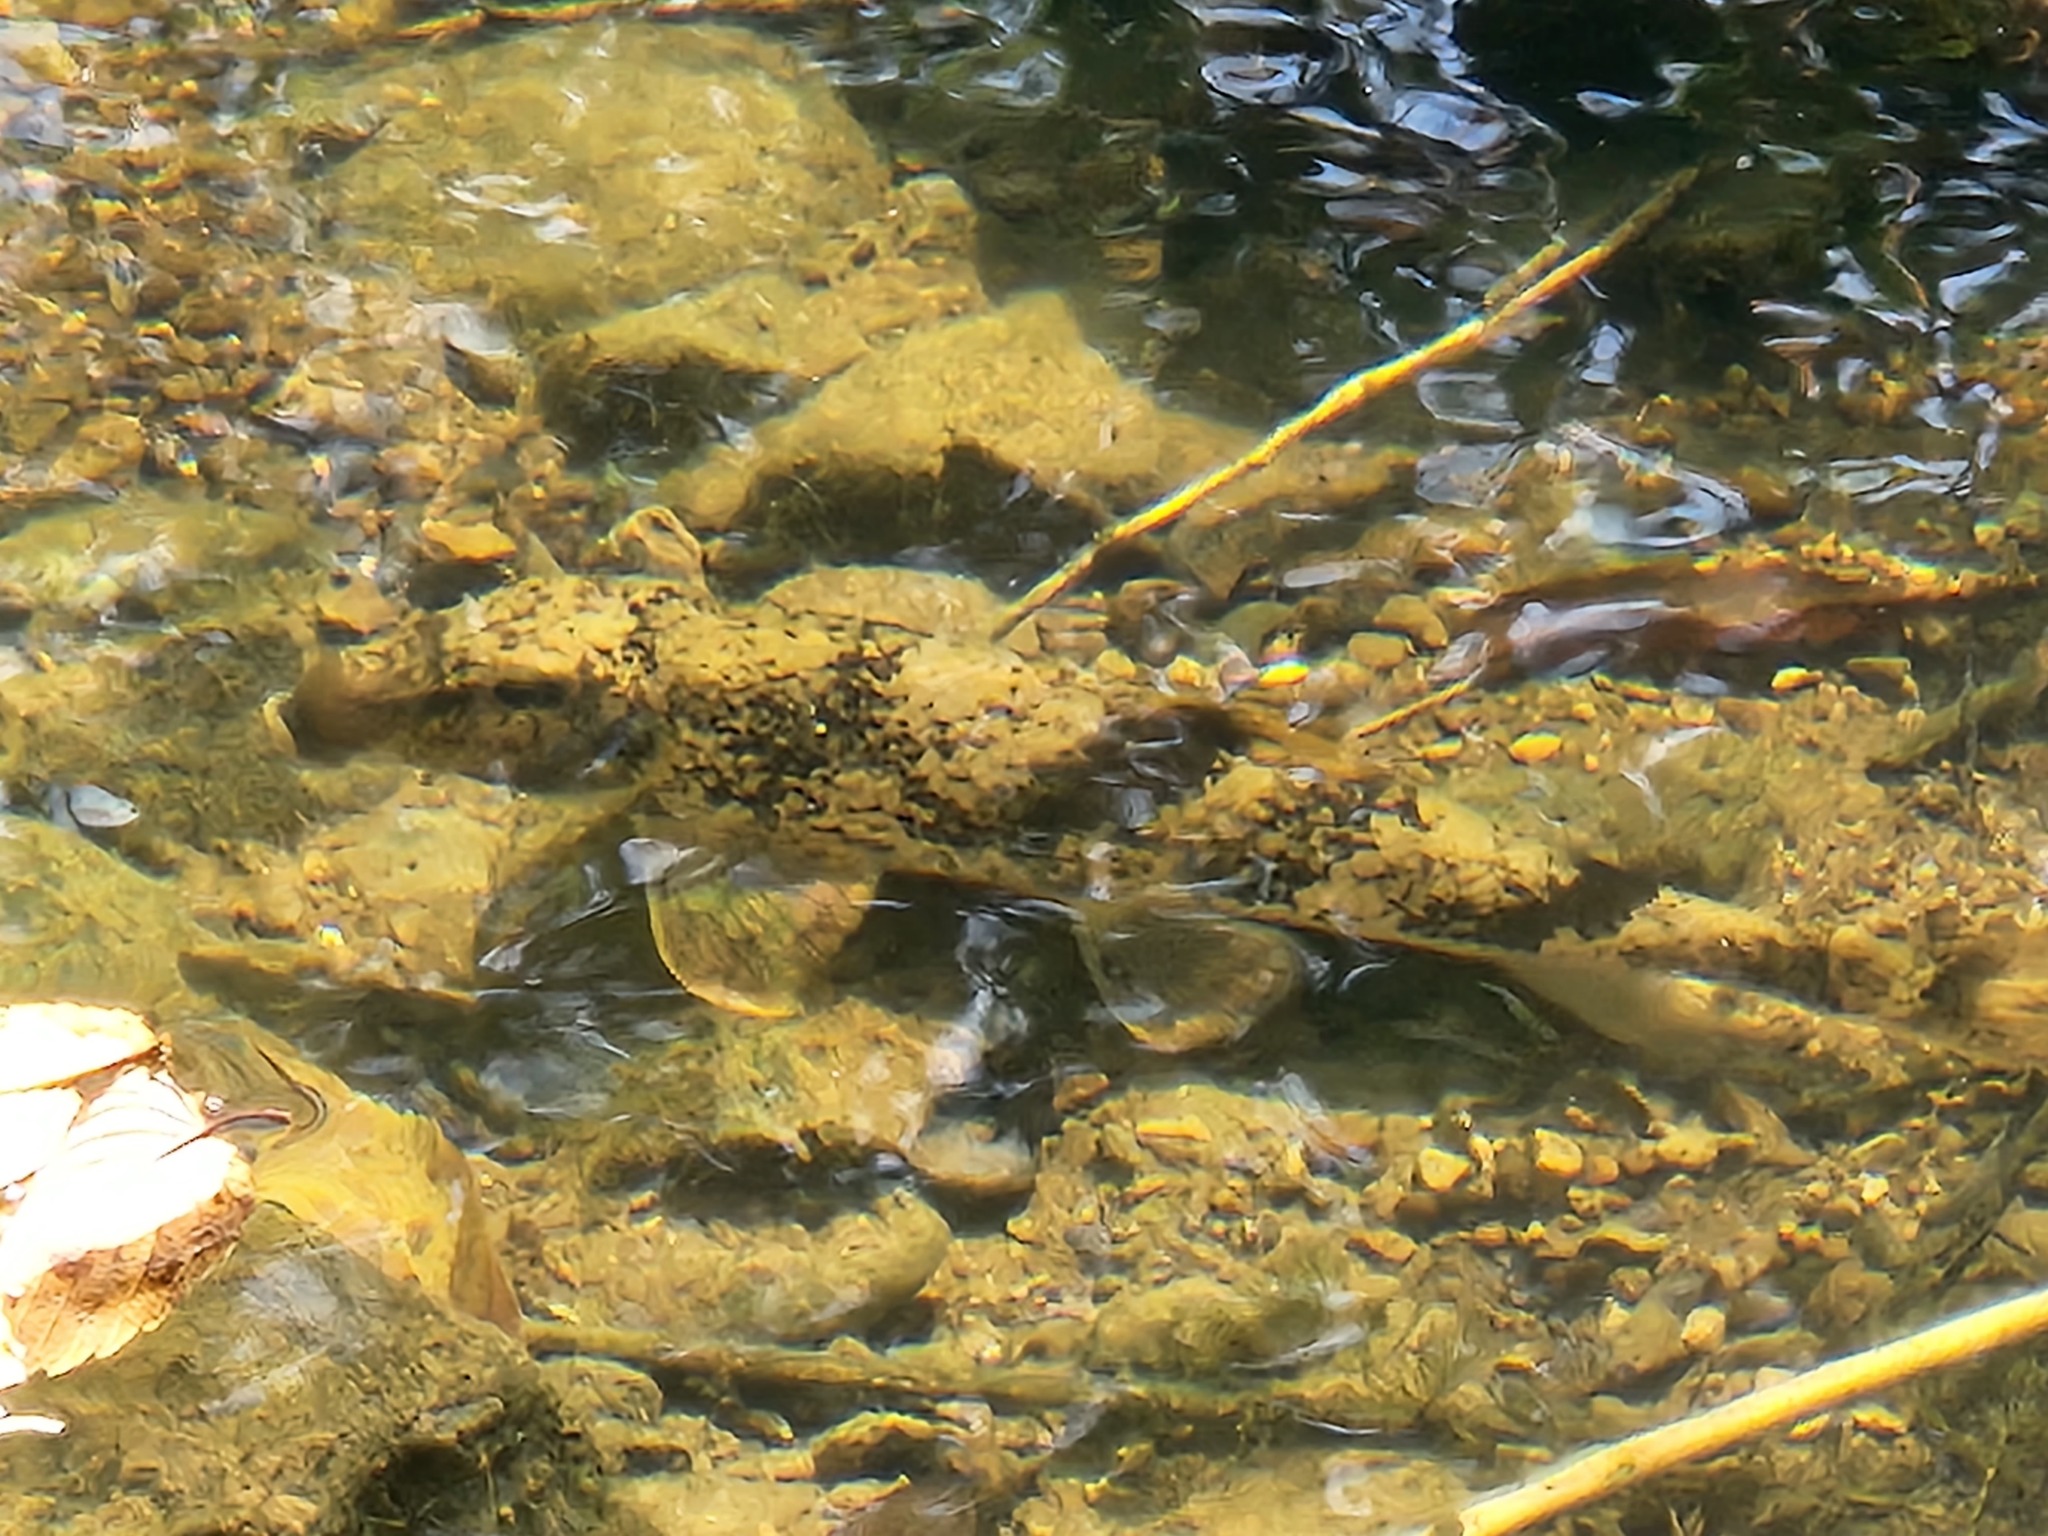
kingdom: Animalia
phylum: Chordata
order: Cypriniformes
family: Catostomidae
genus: Hypentelium
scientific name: Hypentelium nigricans
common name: Northern hog sucker
